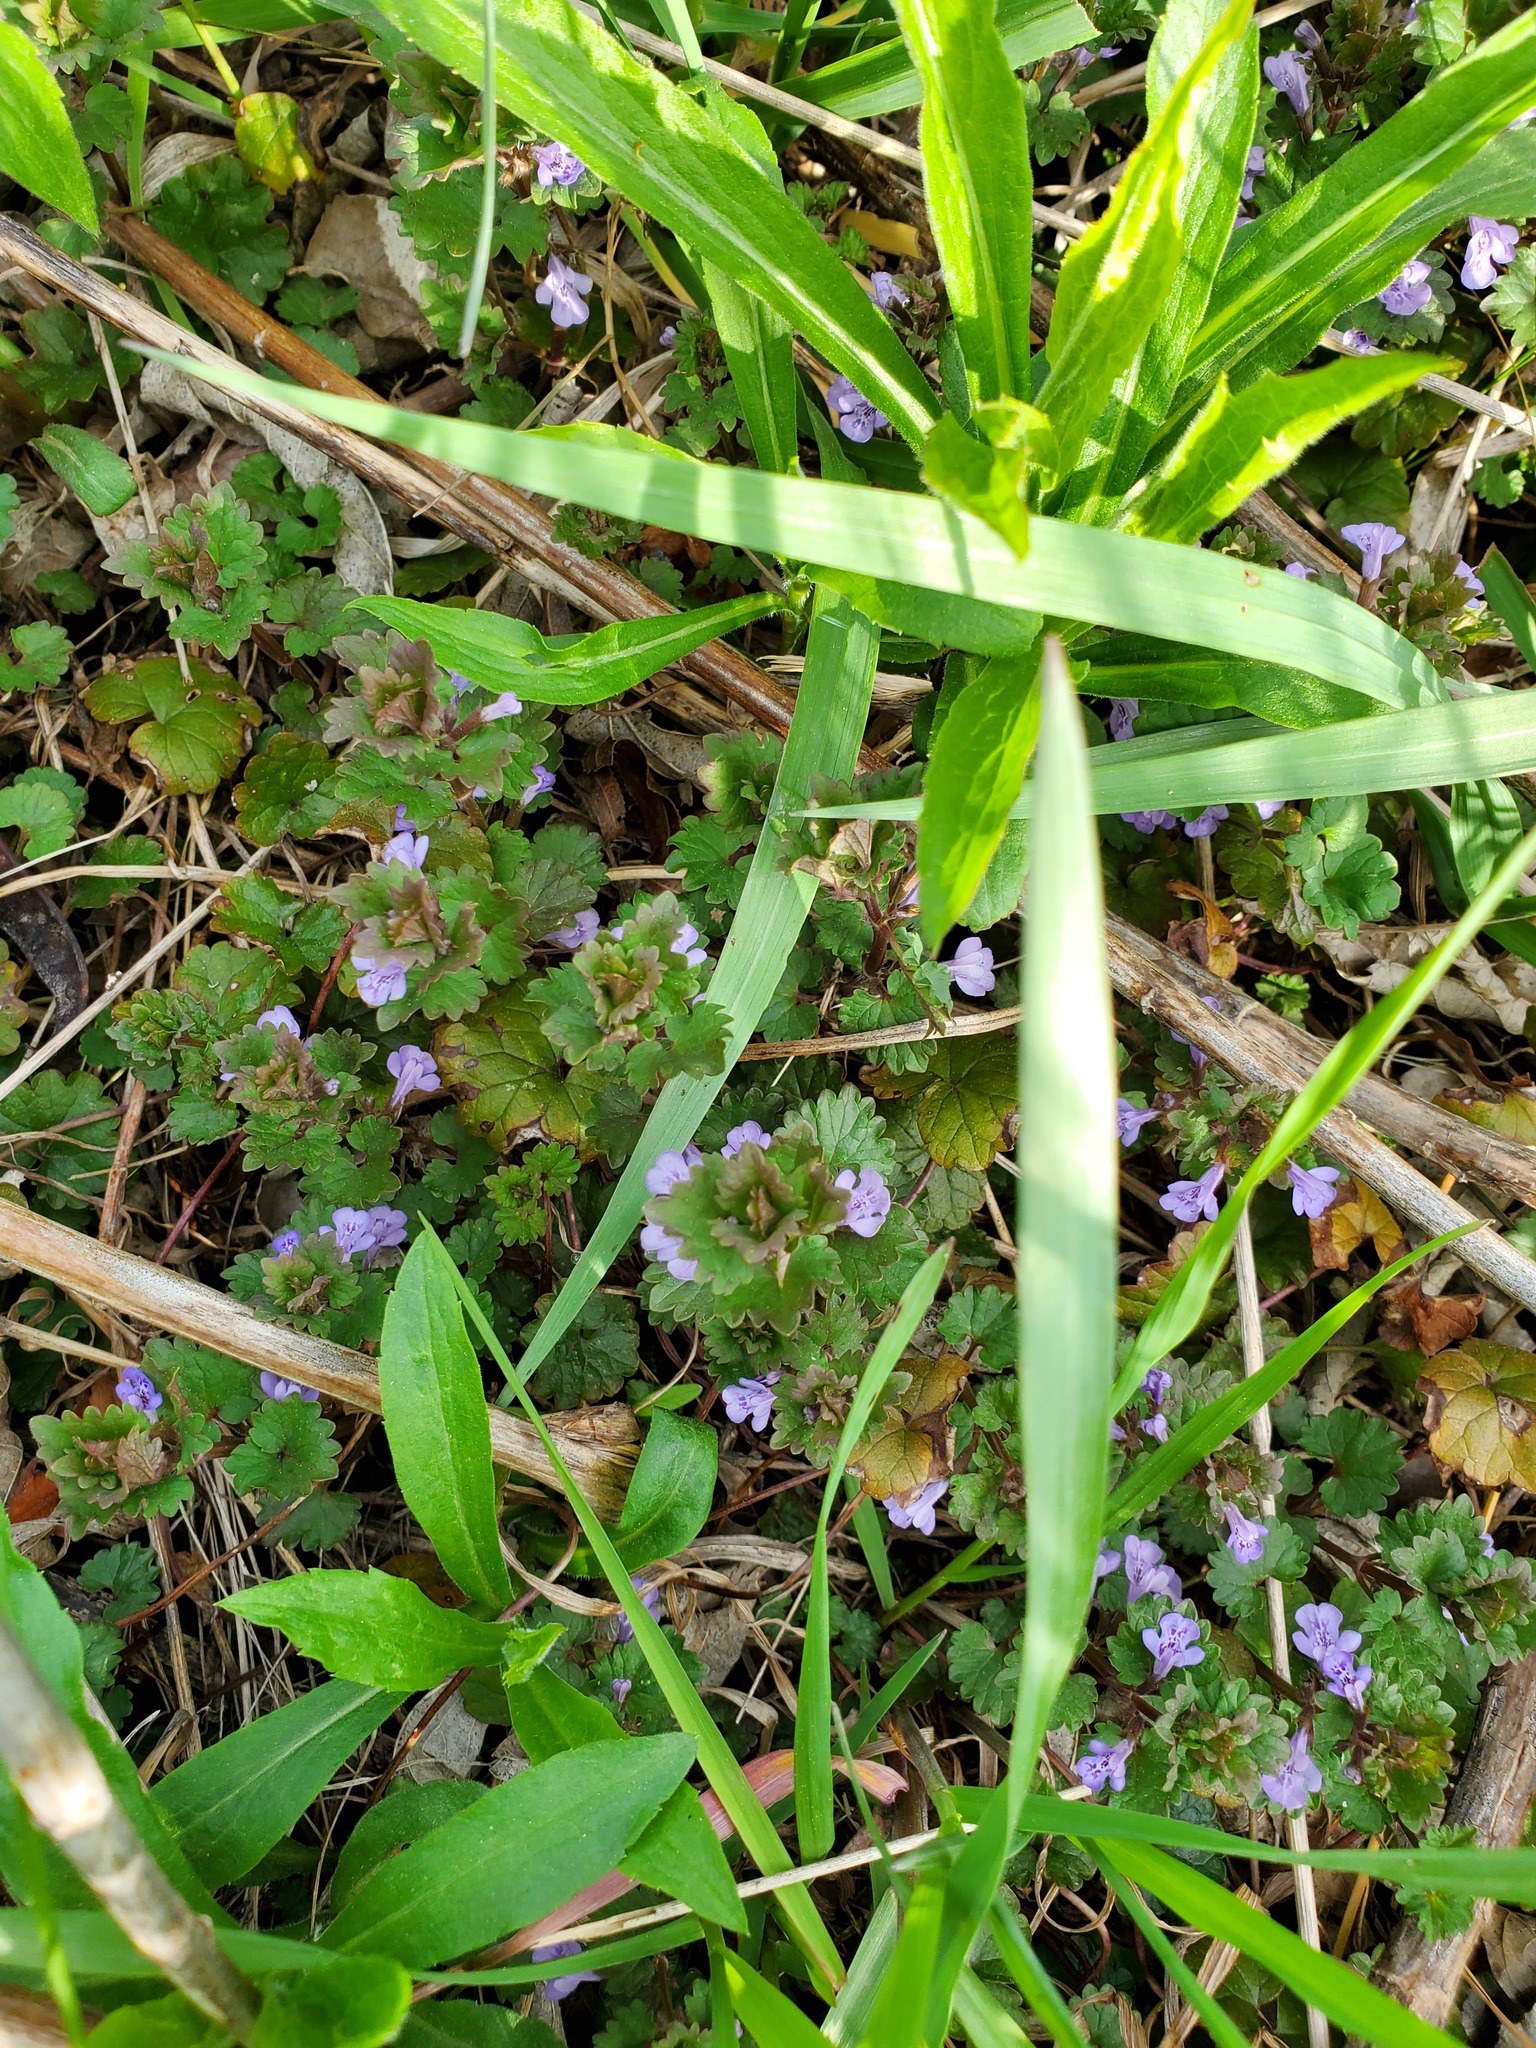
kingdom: Plantae
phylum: Tracheophyta
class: Magnoliopsida
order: Lamiales
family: Lamiaceae
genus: Glechoma
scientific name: Glechoma hederacea
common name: Ground ivy
